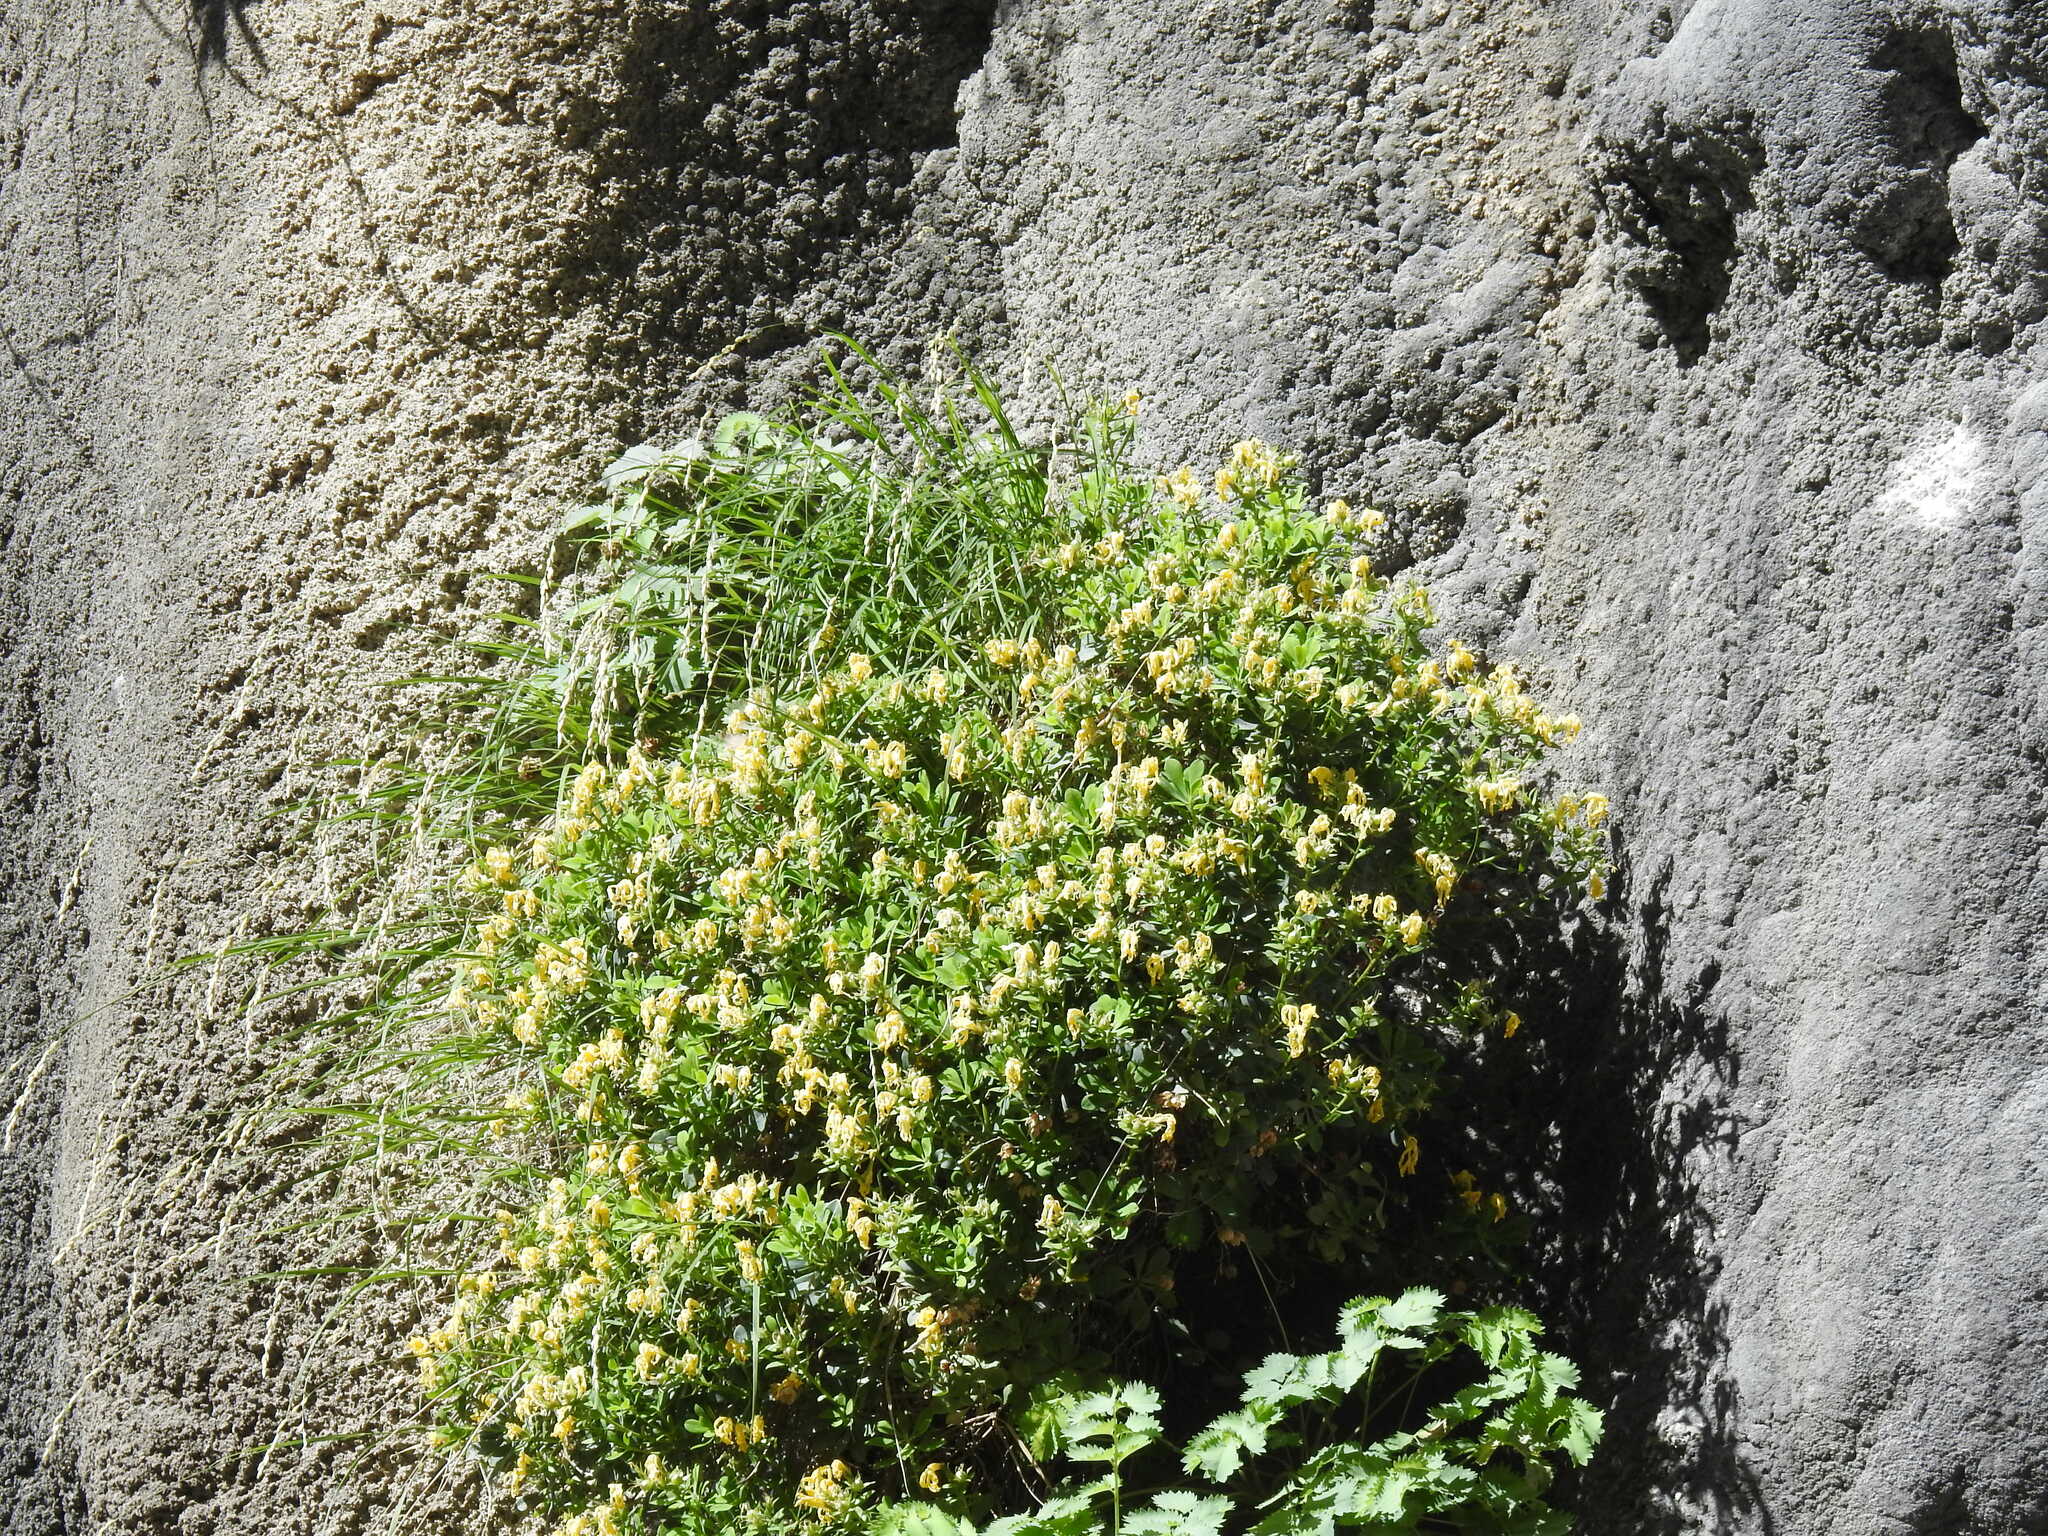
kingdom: Plantae
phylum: Tracheophyta
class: Magnoliopsida
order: Malpighiales
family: Linaceae
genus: Linum
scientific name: Linum arboreum
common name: Tree flax
